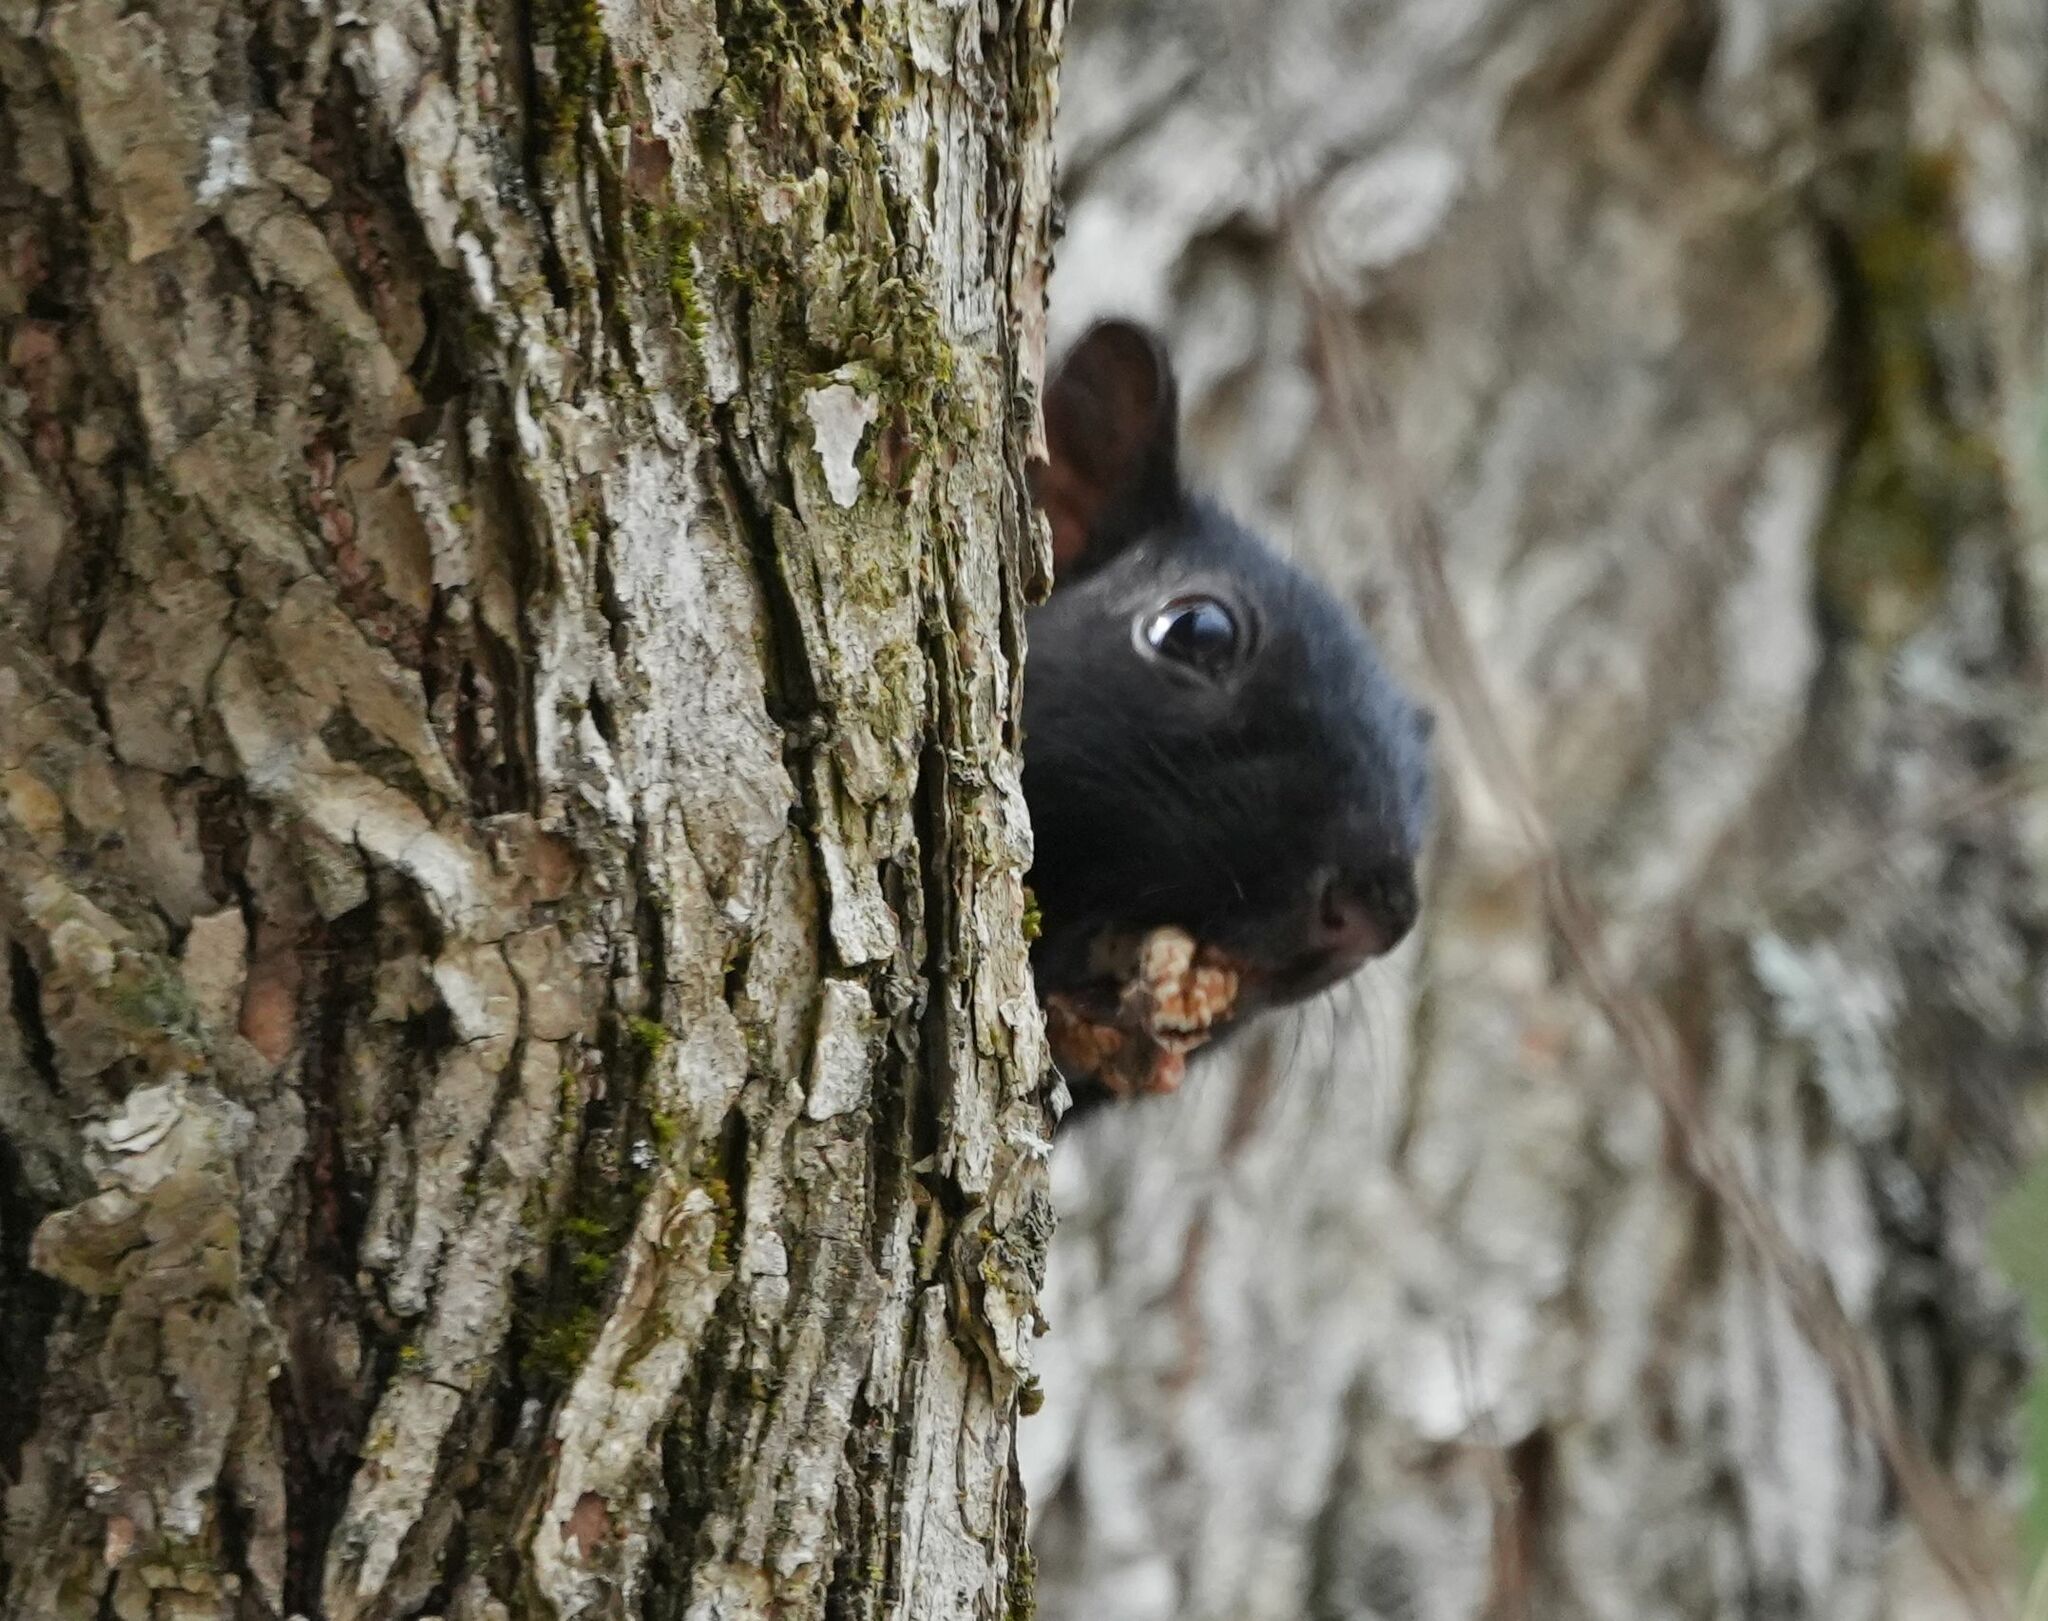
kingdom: Animalia
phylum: Chordata
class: Mammalia
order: Rodentia
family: Sciuridae
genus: Sciurus
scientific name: Sciurus carolinensis
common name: Eastern gray squirrel
